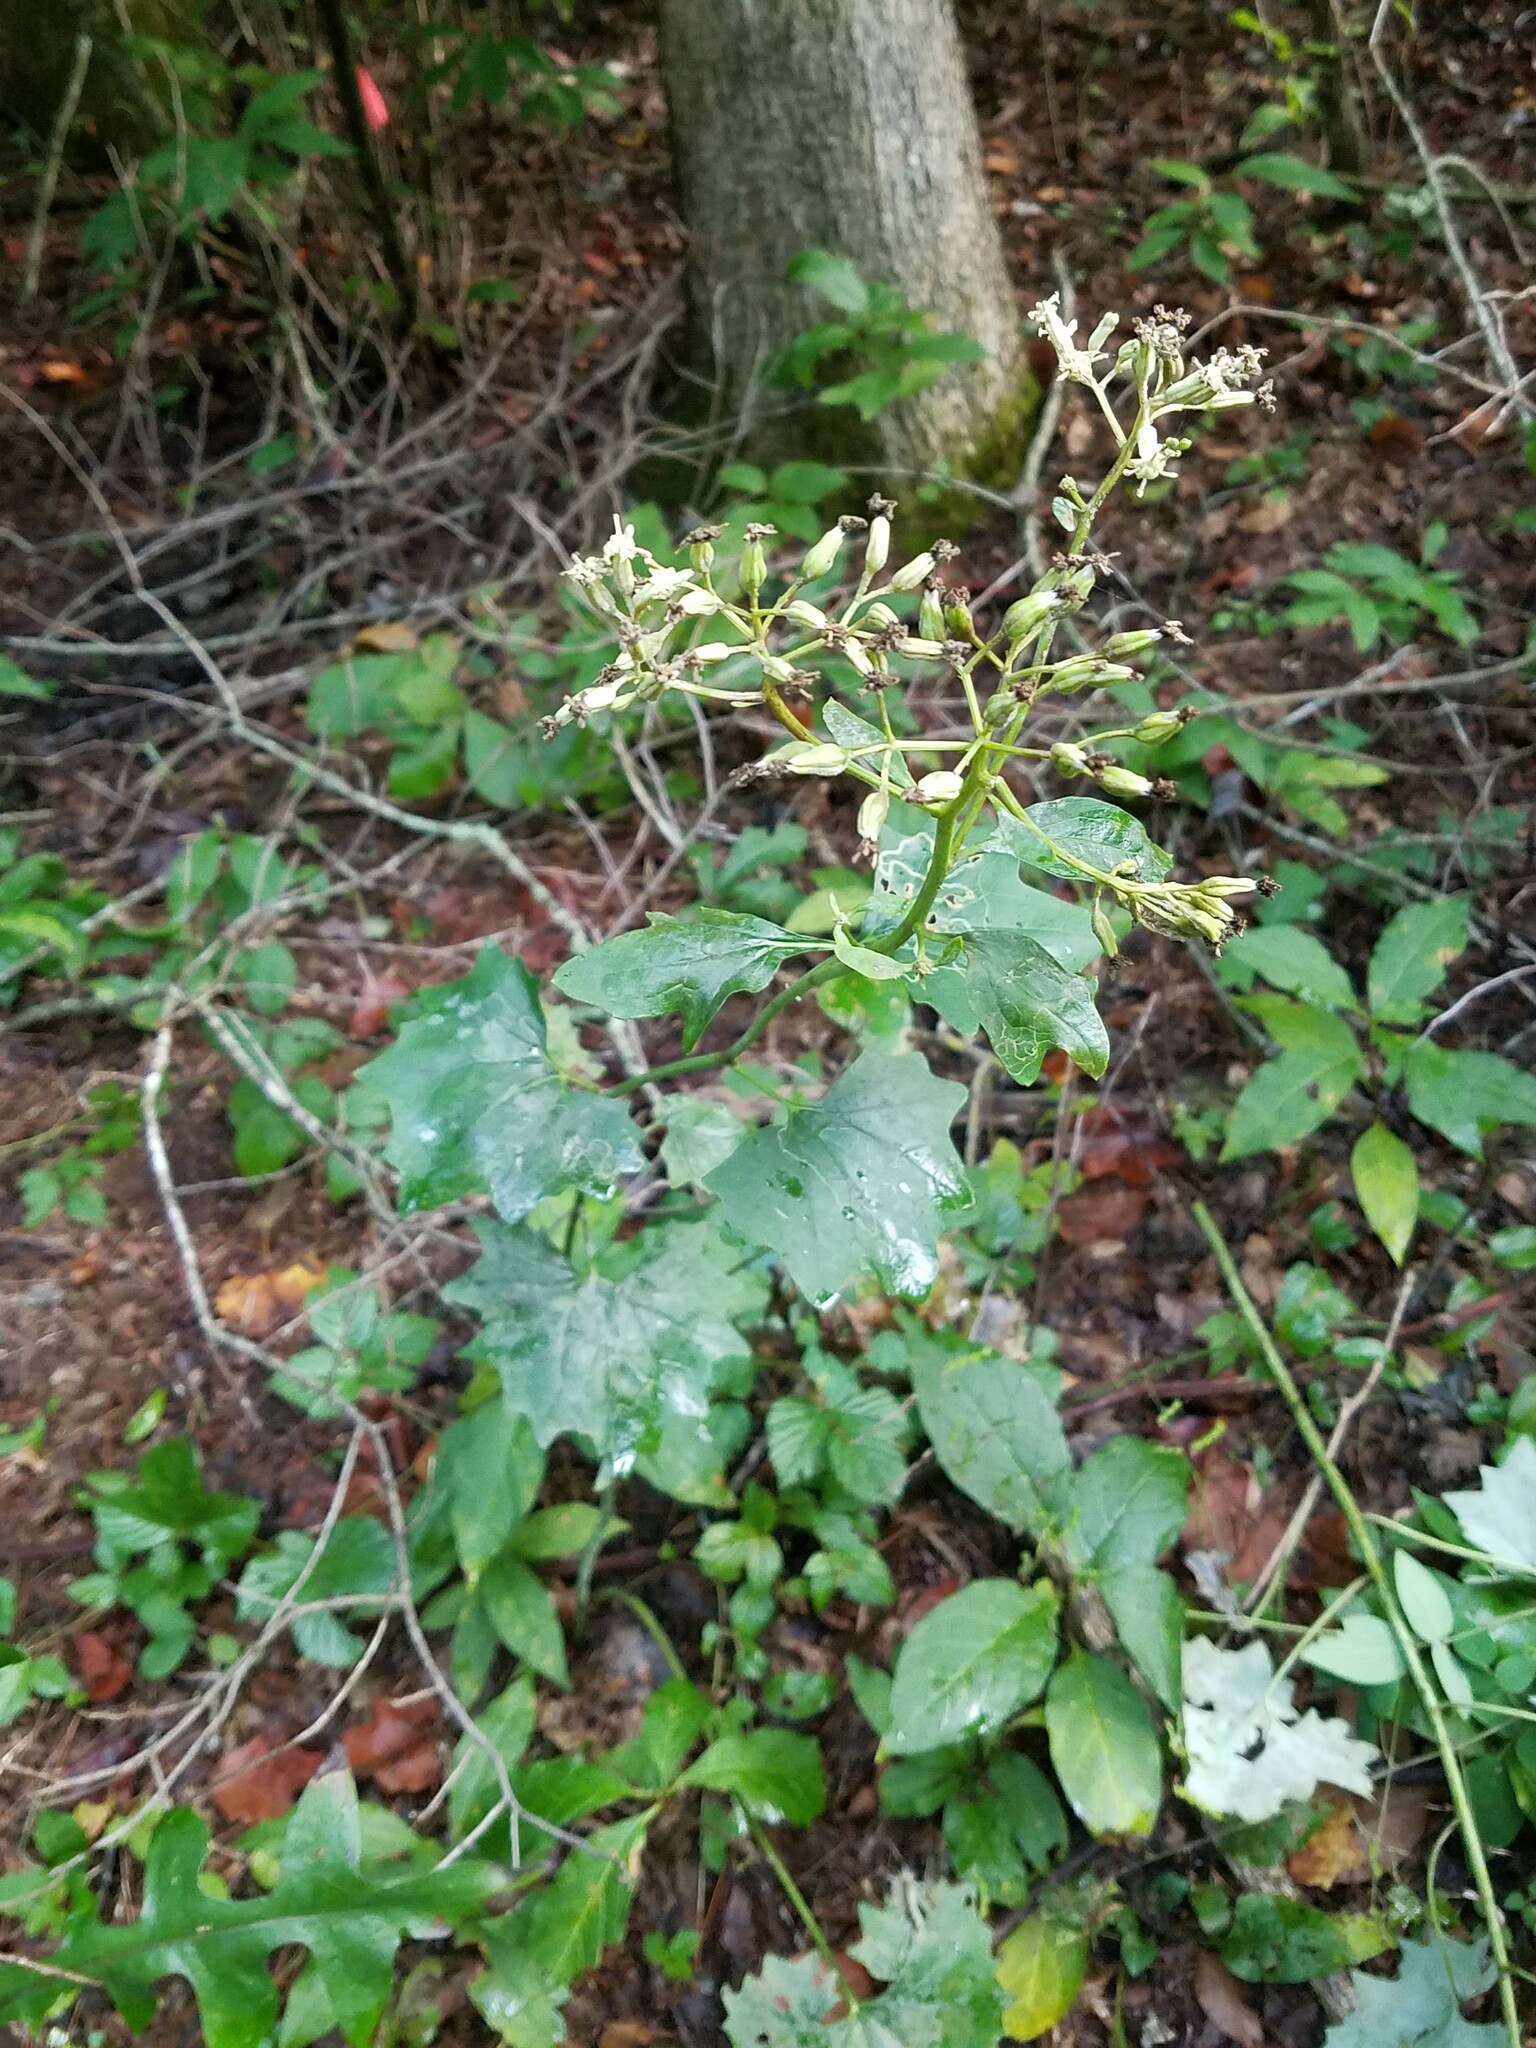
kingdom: Plantae
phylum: Tracheophyta
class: Magnoliopsida
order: Asterales
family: Asteraceae
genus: Arnoglossum
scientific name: Arnoglossum atriplicifolium
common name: Pale indian-plantain
